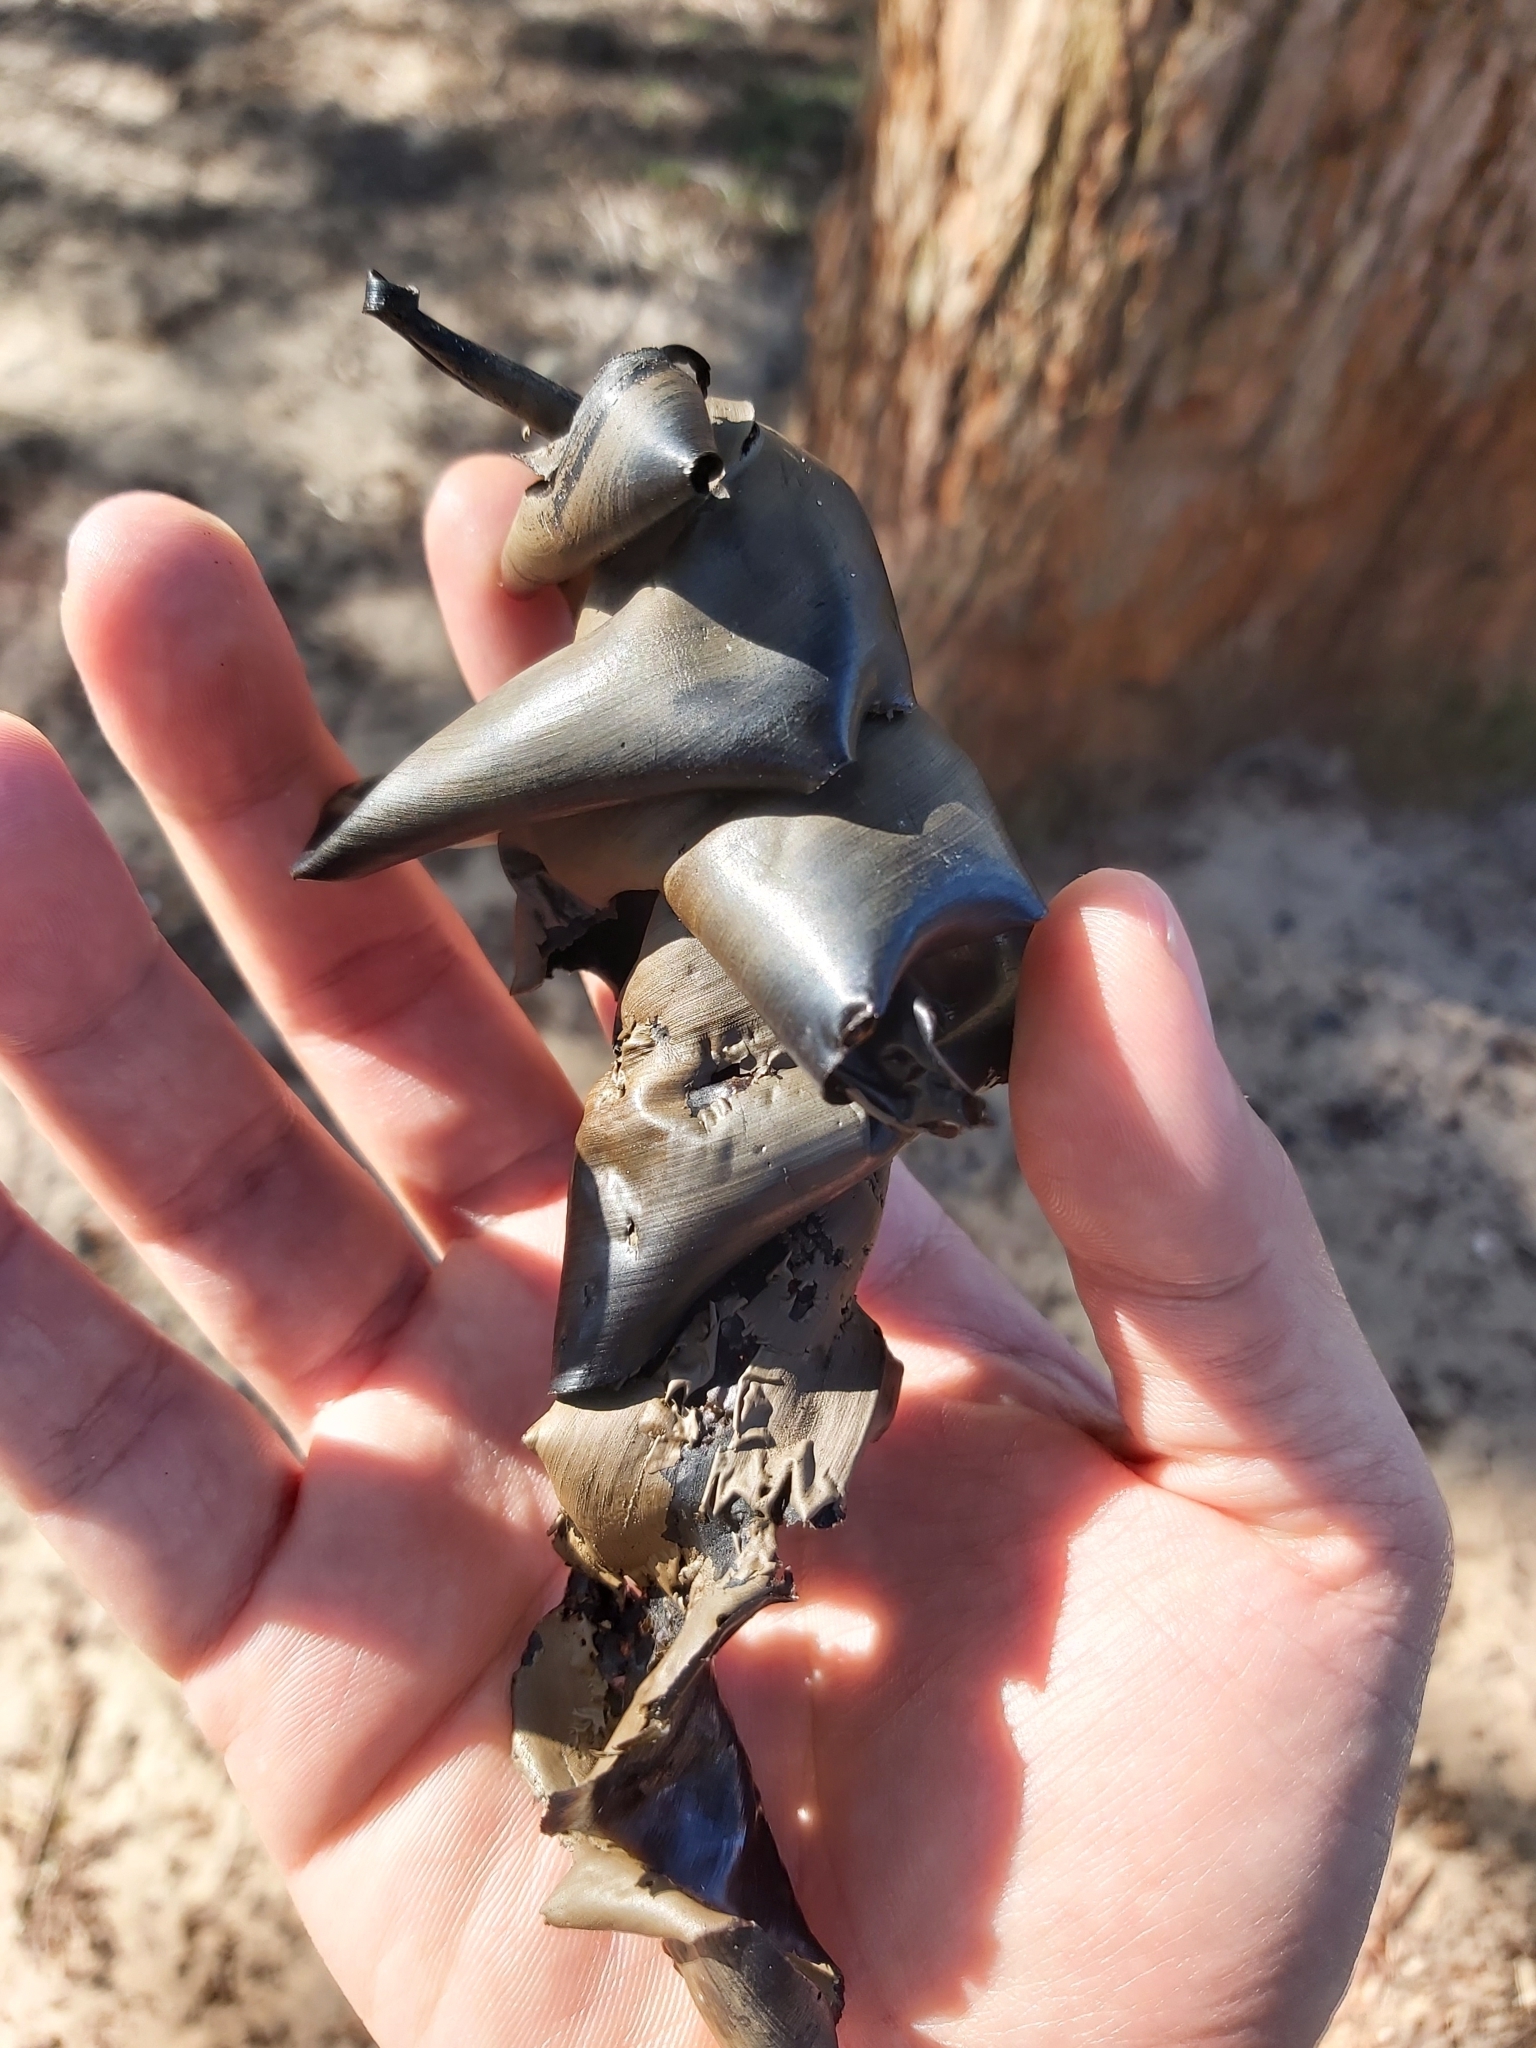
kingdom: Animalia
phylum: Chordata
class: Elasmobranchii
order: Heterodontiformes
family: Heterodontidae
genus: Heterodontus
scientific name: Heterodontus portusjacksoni
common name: Port jackson shark
